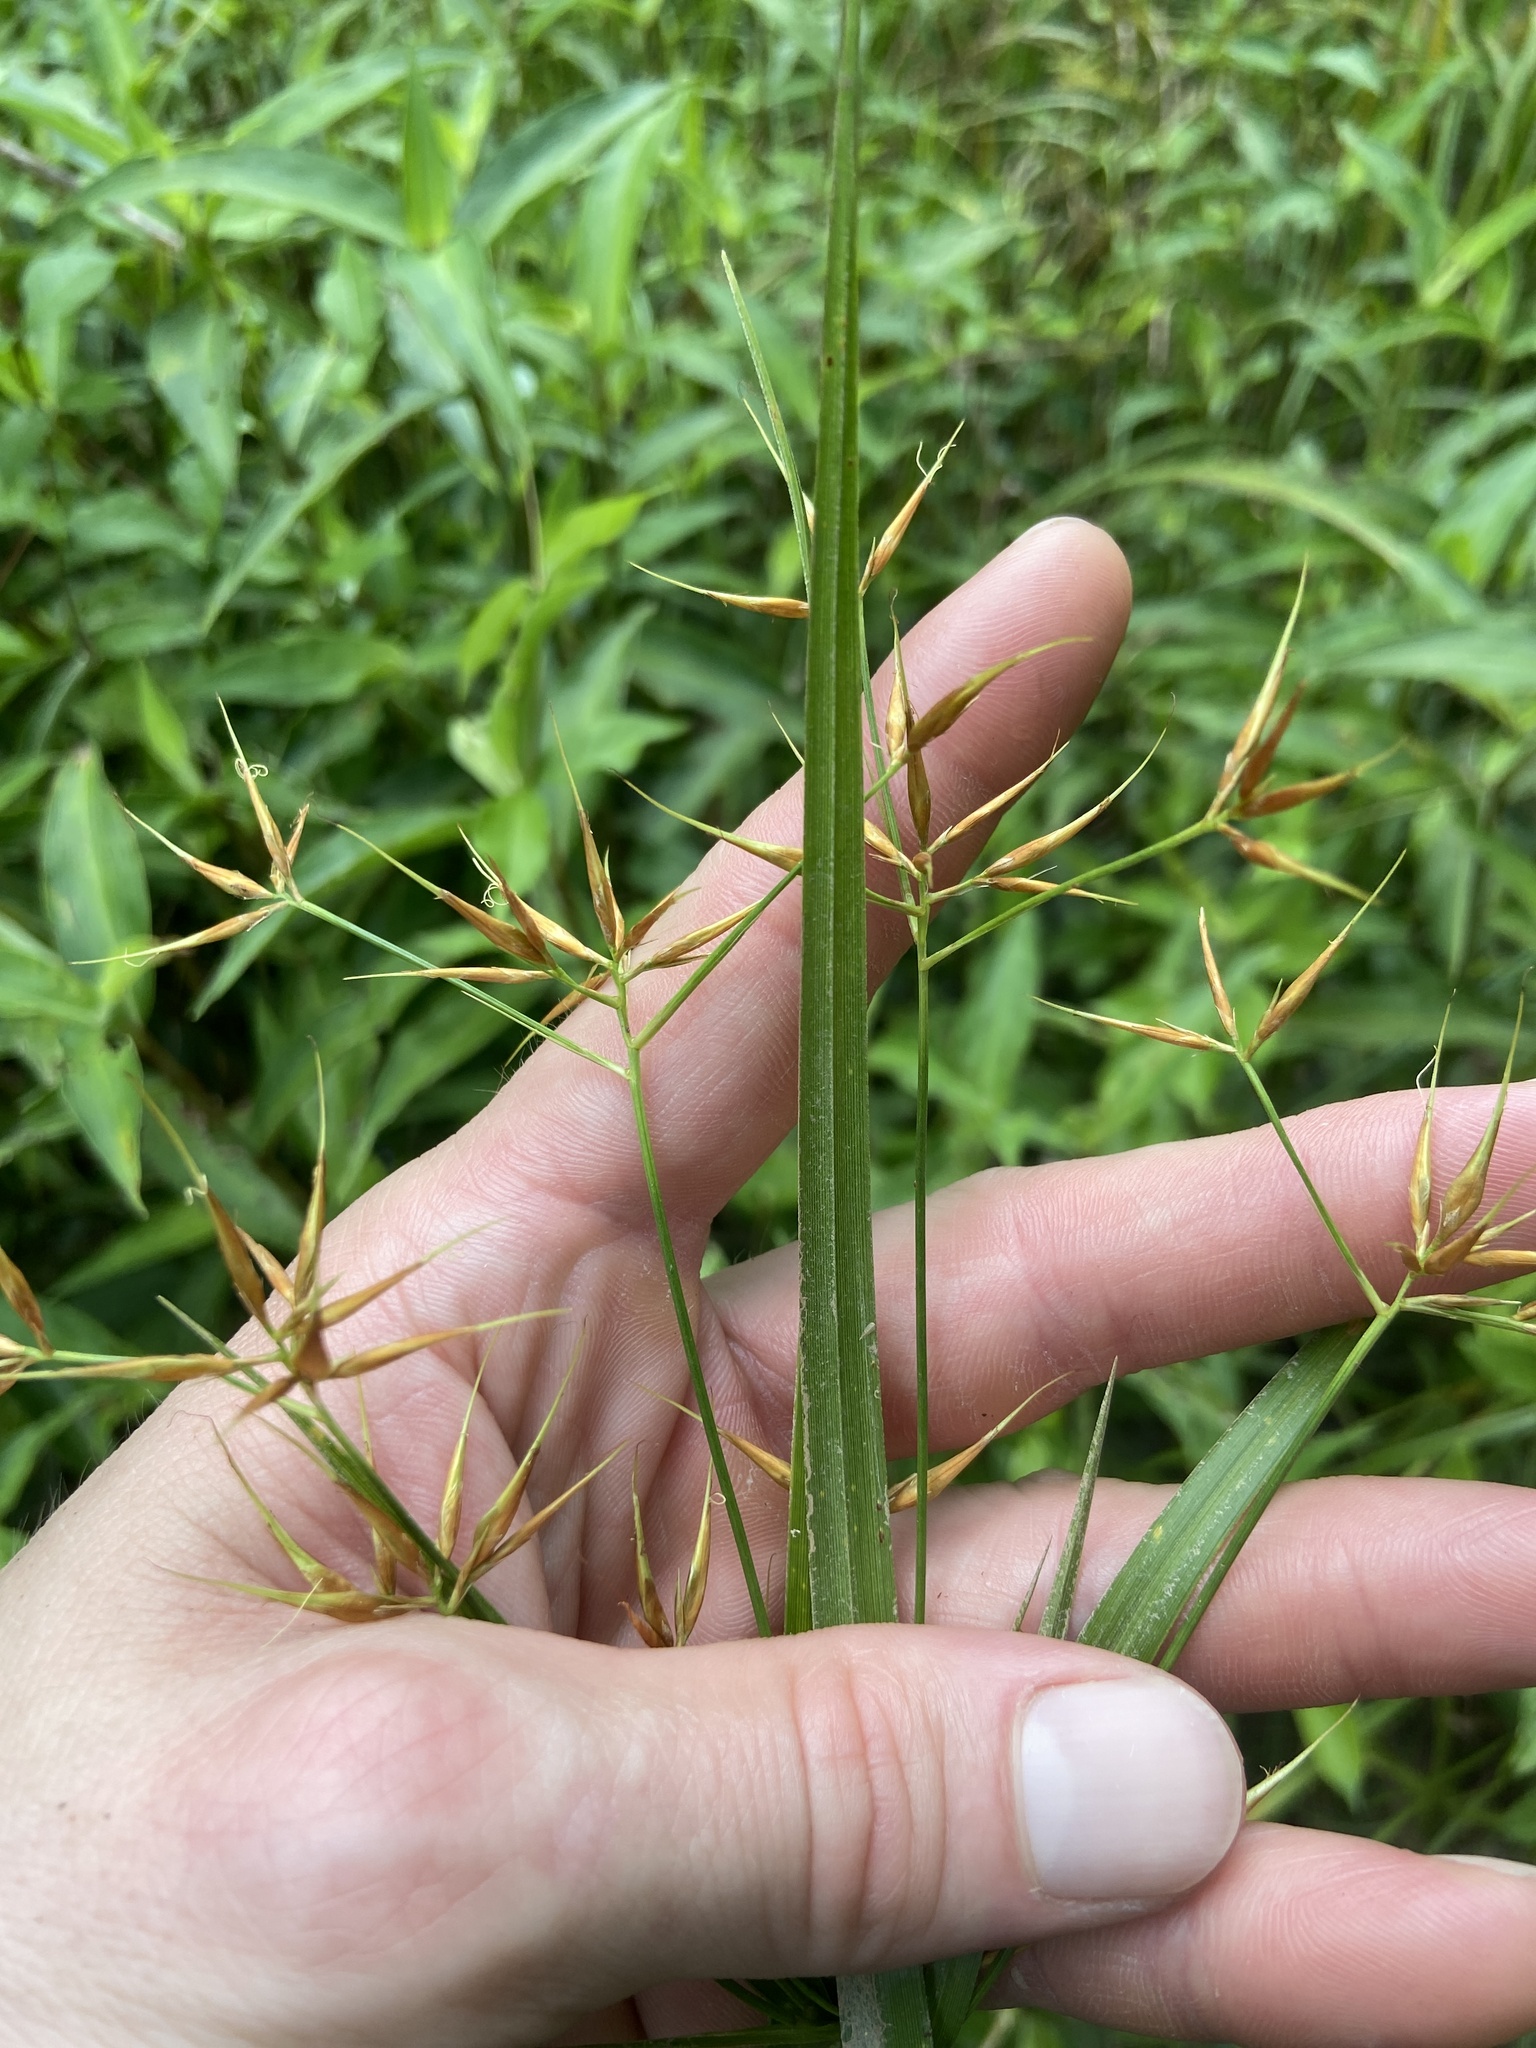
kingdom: Plantae
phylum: Tracheophyta
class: Liliopsida
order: Poales
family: Cyperaceae
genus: Rhynchospora
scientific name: Rhynchospora corniculata
